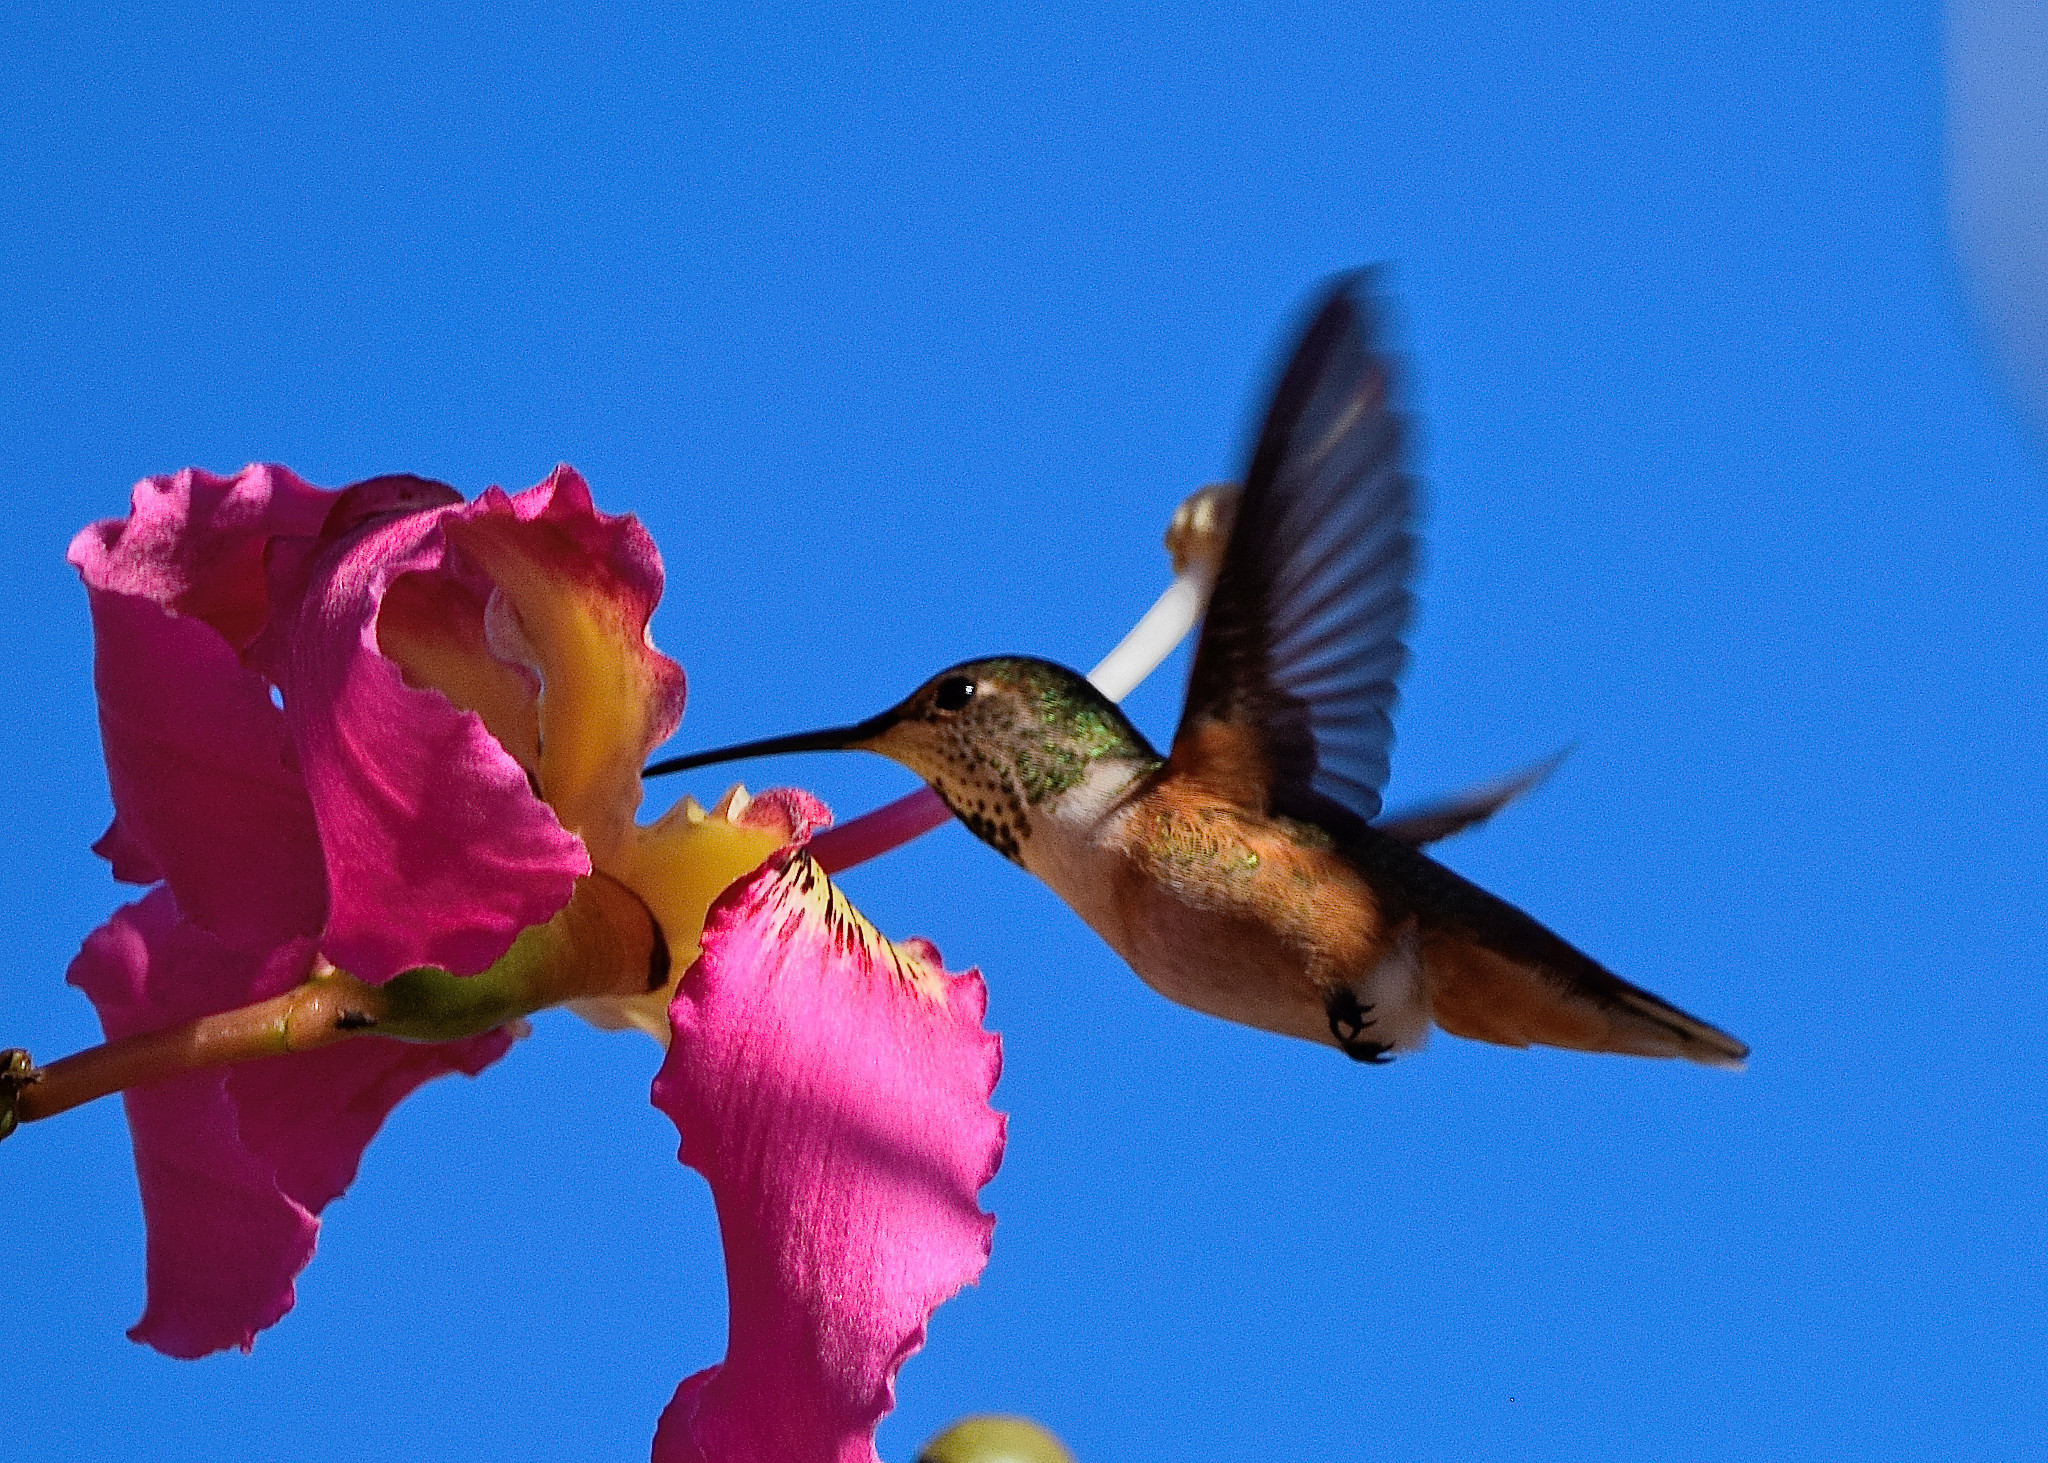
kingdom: Animalia
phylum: Chordata
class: Aves
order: Apodiformes
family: Trochilidae
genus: Selasphorus
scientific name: Selasphorus
